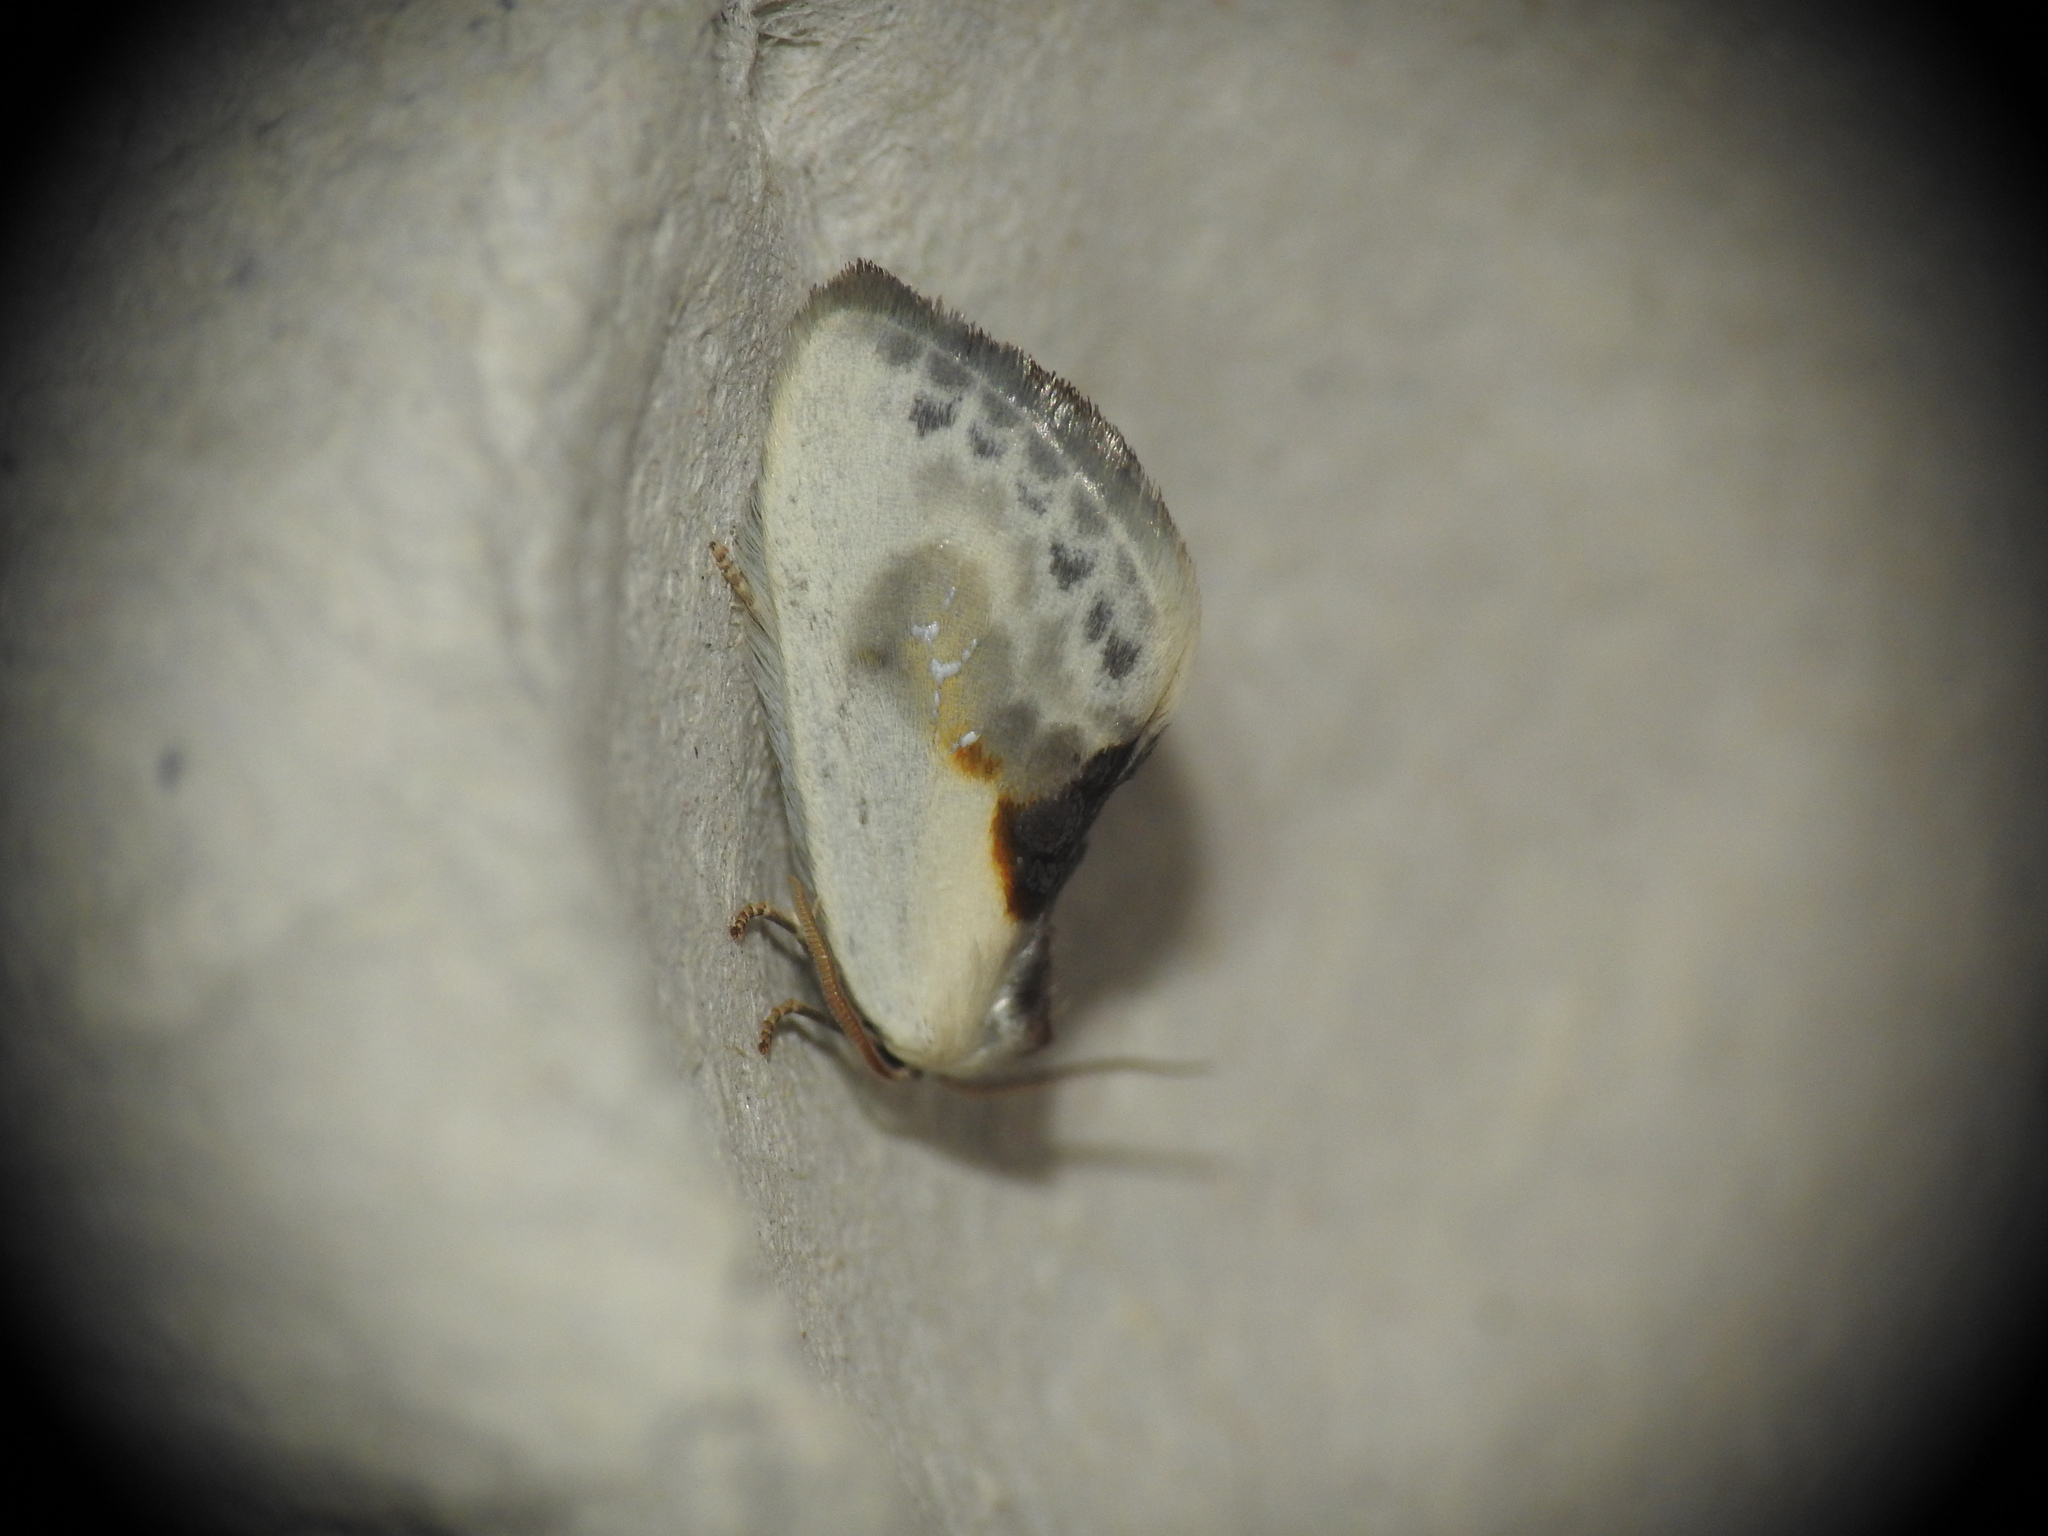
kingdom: Animalia
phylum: Arthropoda
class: Insecta
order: Lepidoptera
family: Drepanidae
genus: Cilix
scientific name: Cilix glaucata
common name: Chinese character
